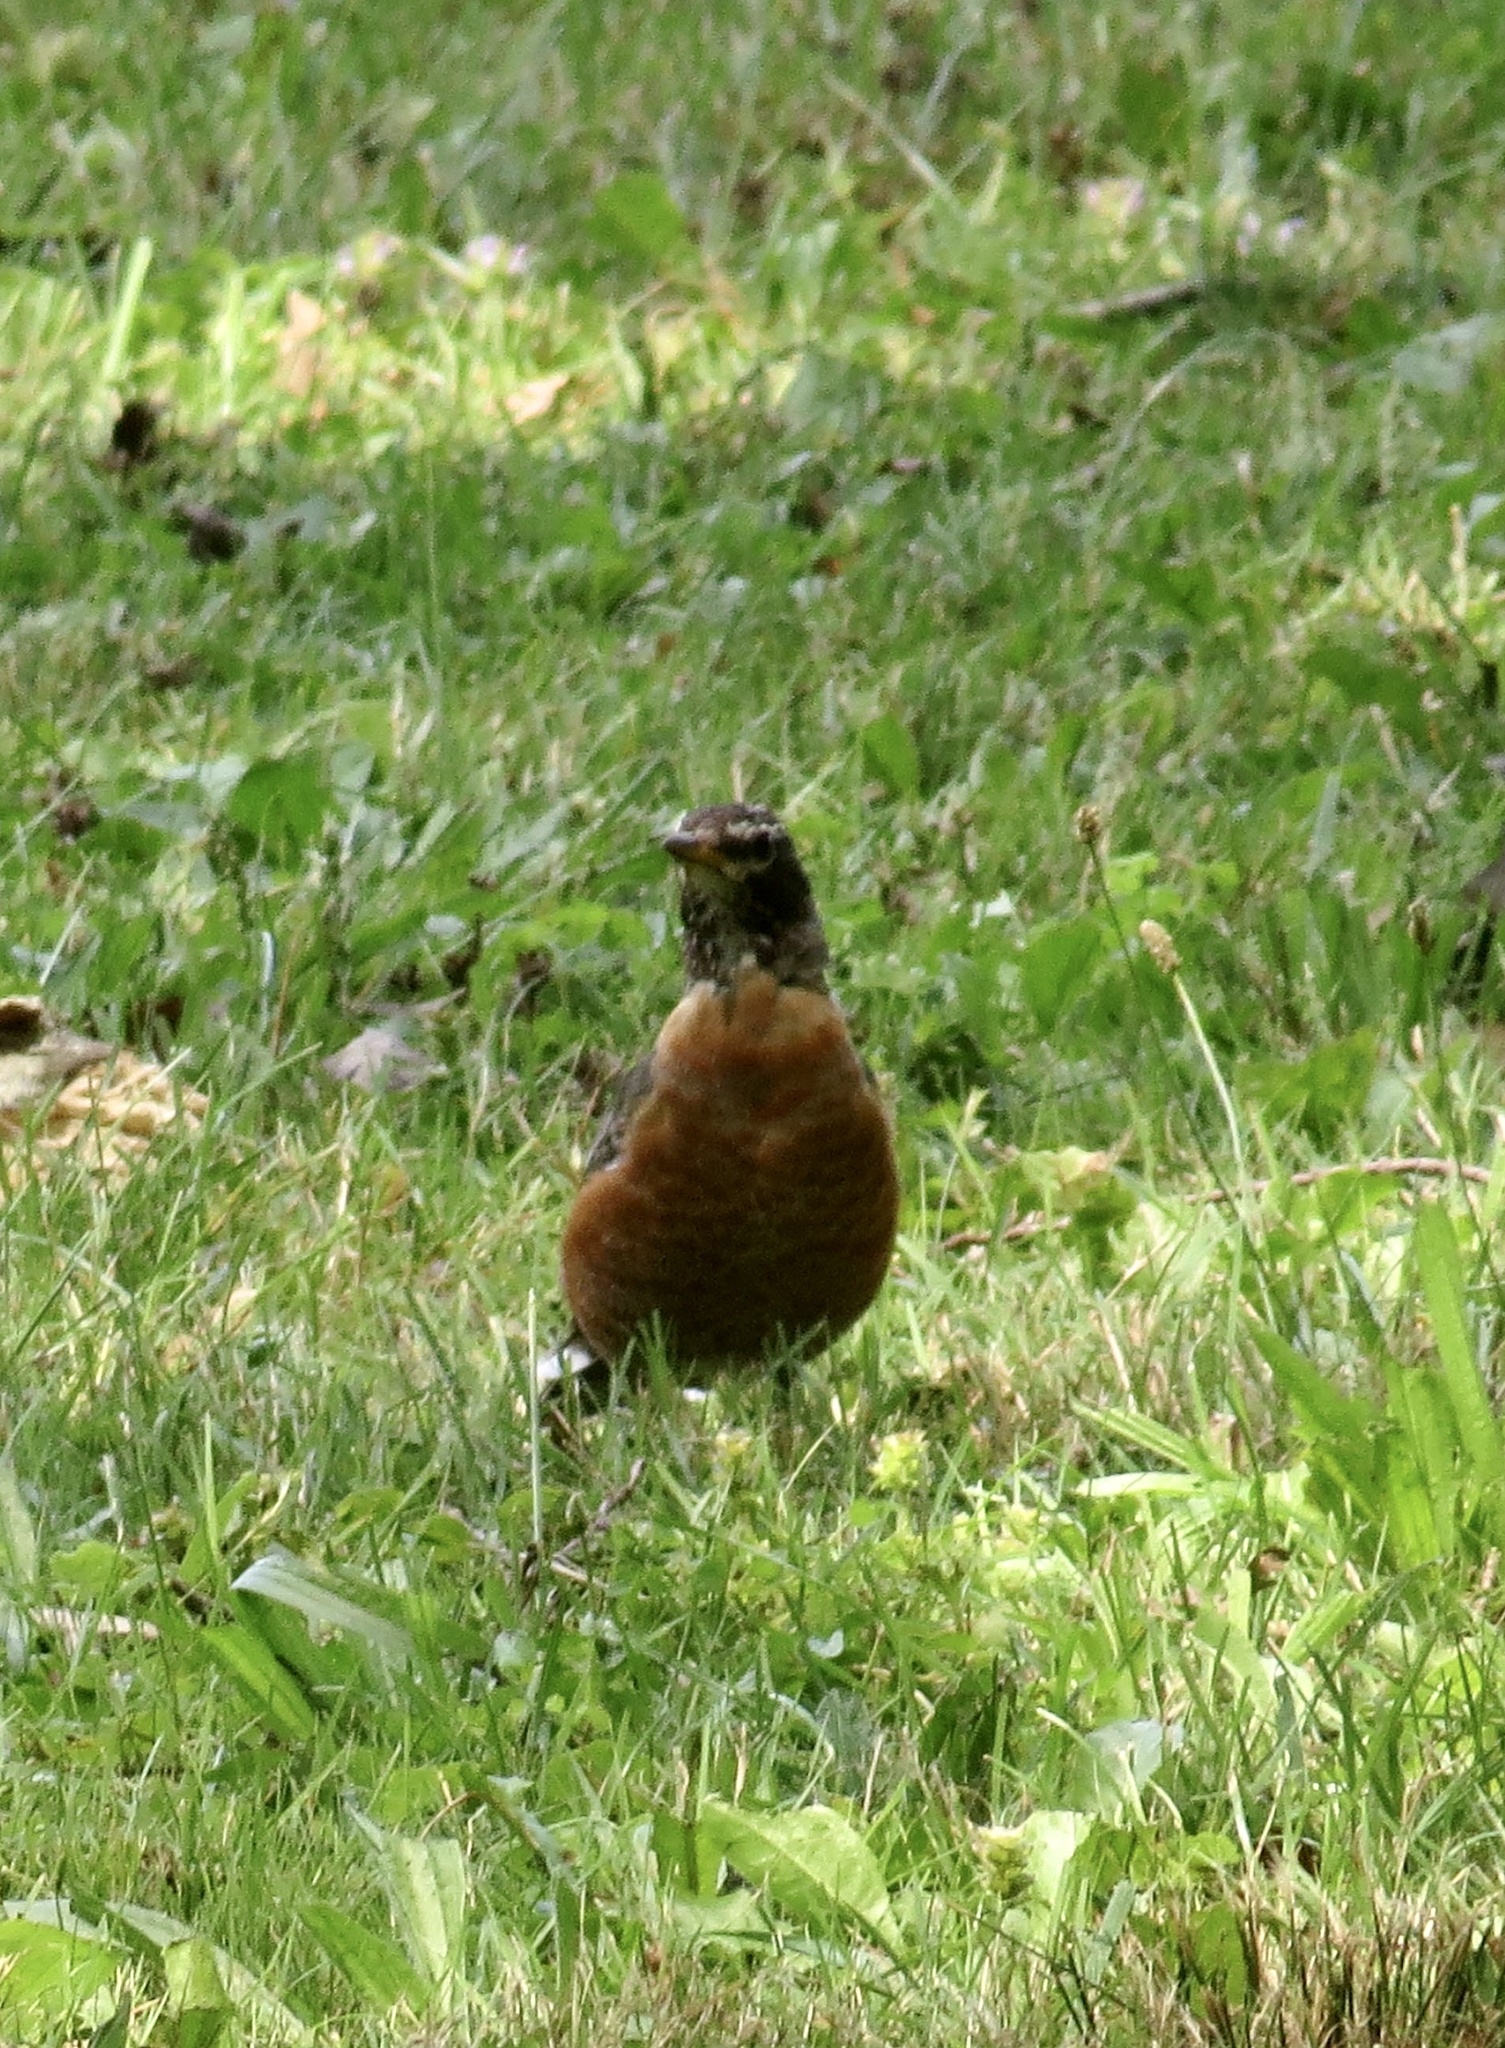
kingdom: Animalia
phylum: Chordata
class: Aves
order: Passeriformes
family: Turdidae
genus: Turdus
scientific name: Turdus migratorius
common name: American robin
